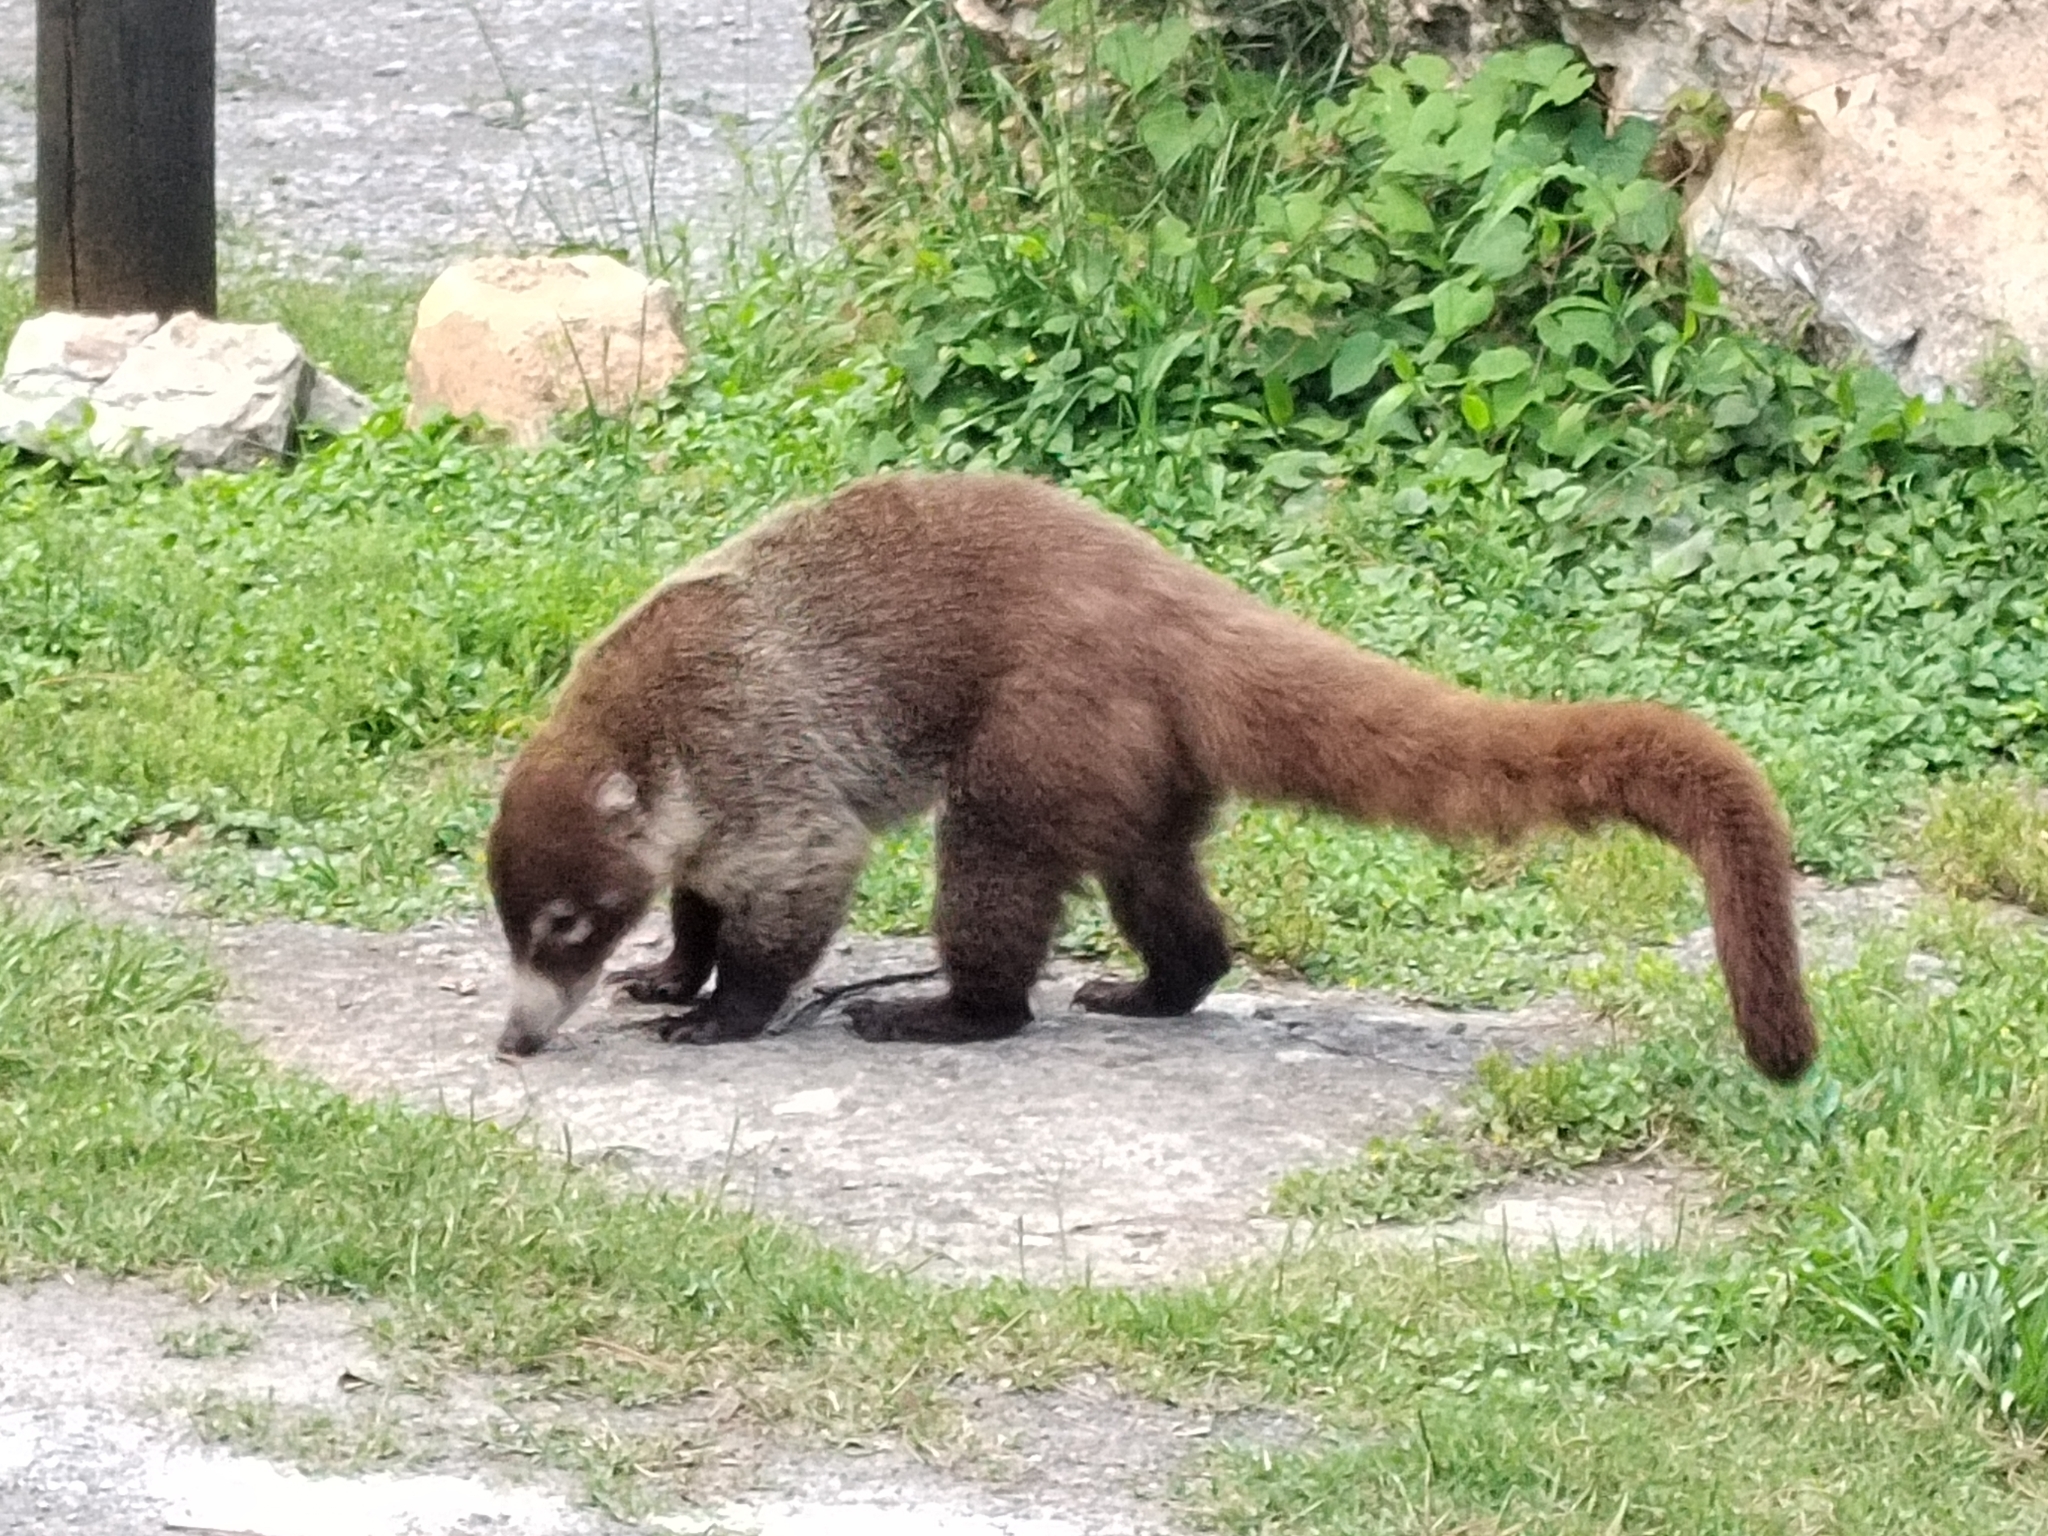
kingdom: Animalia
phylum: Chordata
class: Mammalia
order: Carnivora
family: Procyonidae
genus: Nasua
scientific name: Nasua narica
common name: White-nosed coati
